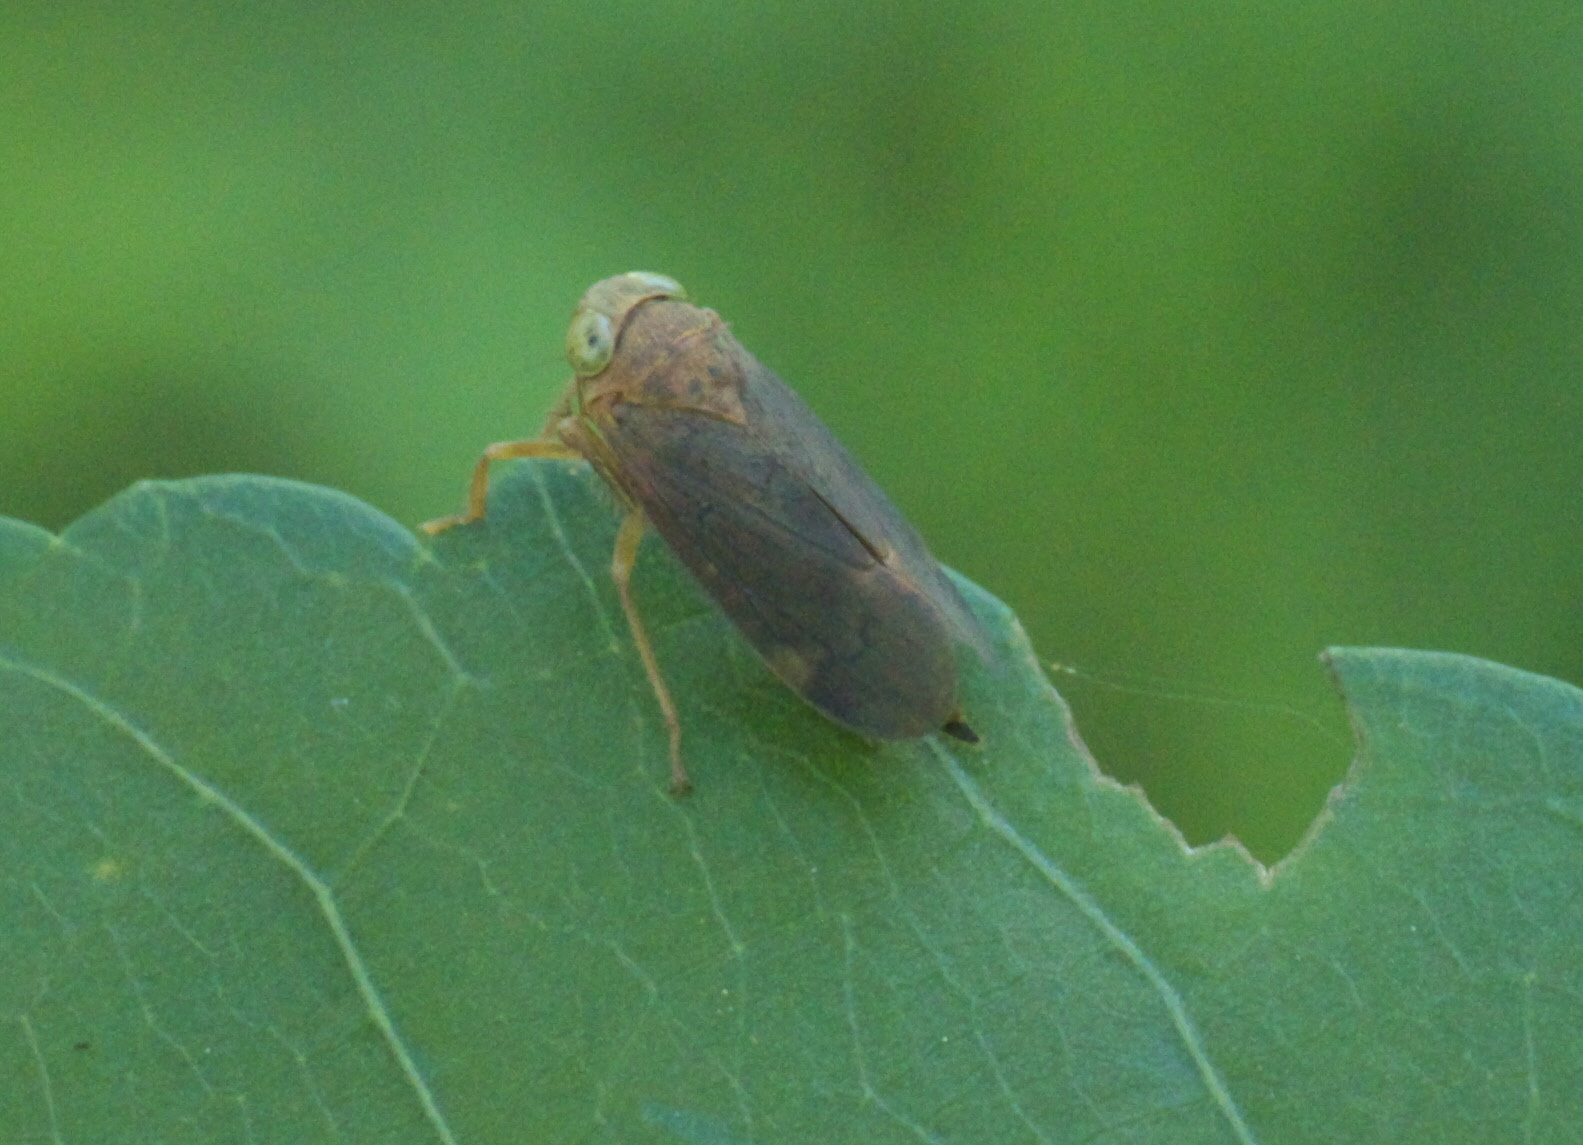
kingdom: Animalia
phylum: Arthropoda
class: Insecta
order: Hemiptera
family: Cicadellidae
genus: Jikradia
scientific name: Jikradia olitoria
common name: Coppery leafhopper
